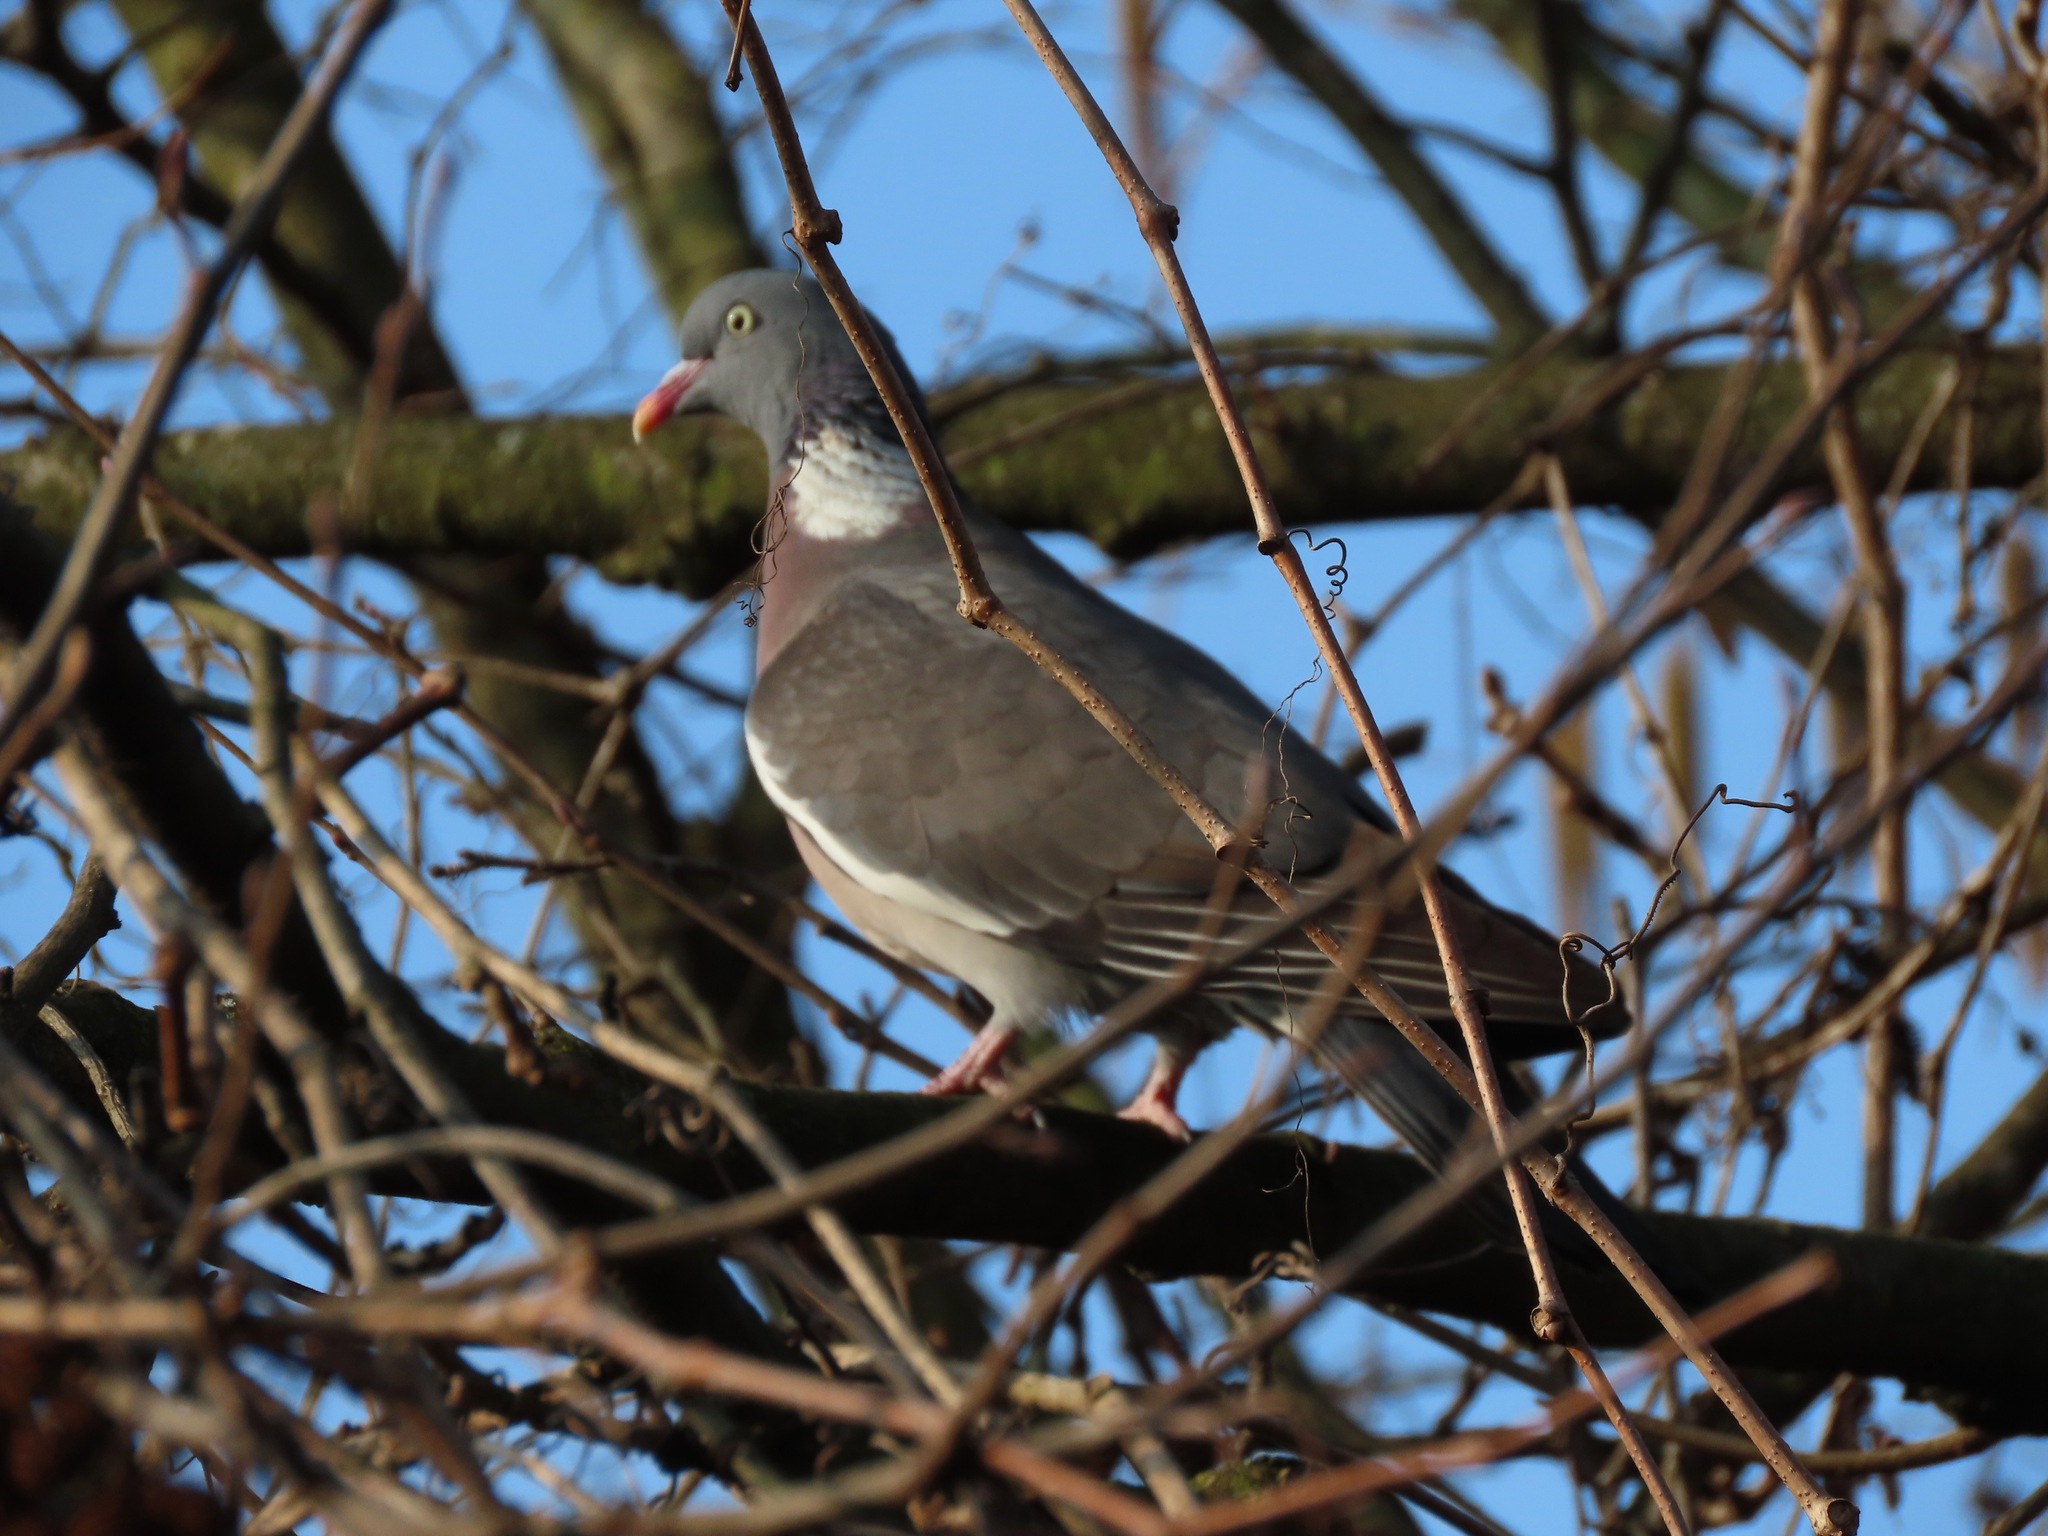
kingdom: Animalia
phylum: Chordata
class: Aves
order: Columbiformes
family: Columbidae
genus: Columba
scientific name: Columba palumbus
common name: Common wood pigeon
